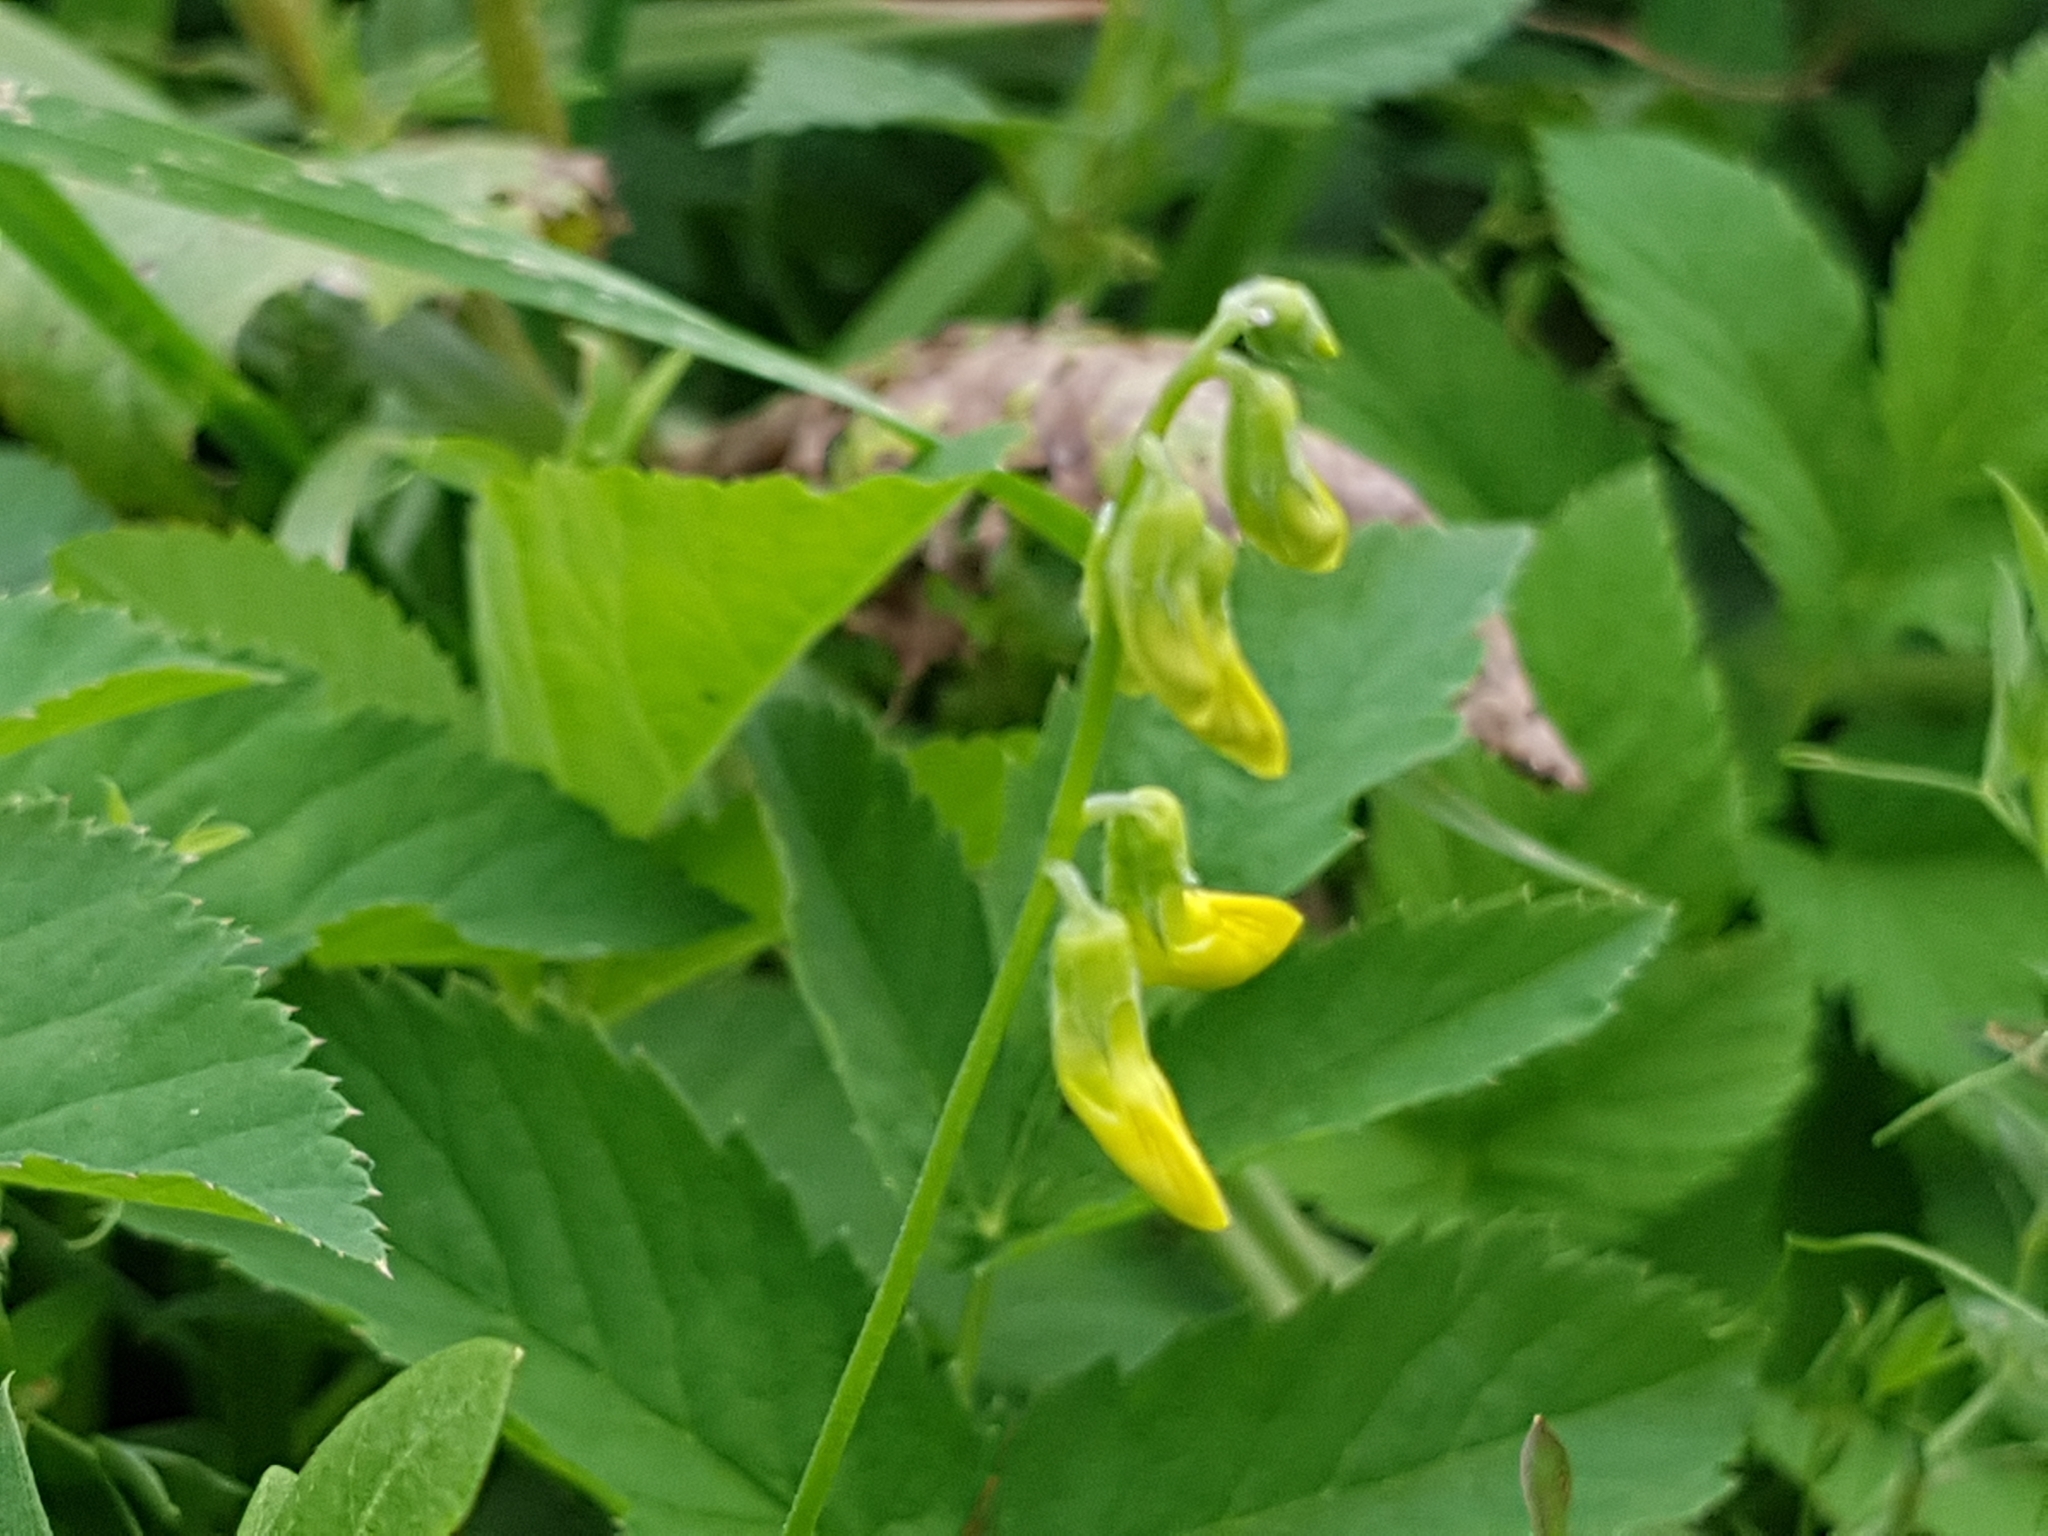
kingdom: Plantae
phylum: Tracheophyta
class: Magnoliopsida
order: Fabales
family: Fabaceae
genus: Lathyrus
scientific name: Lathyrus pratensis
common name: Meadow vetchling
